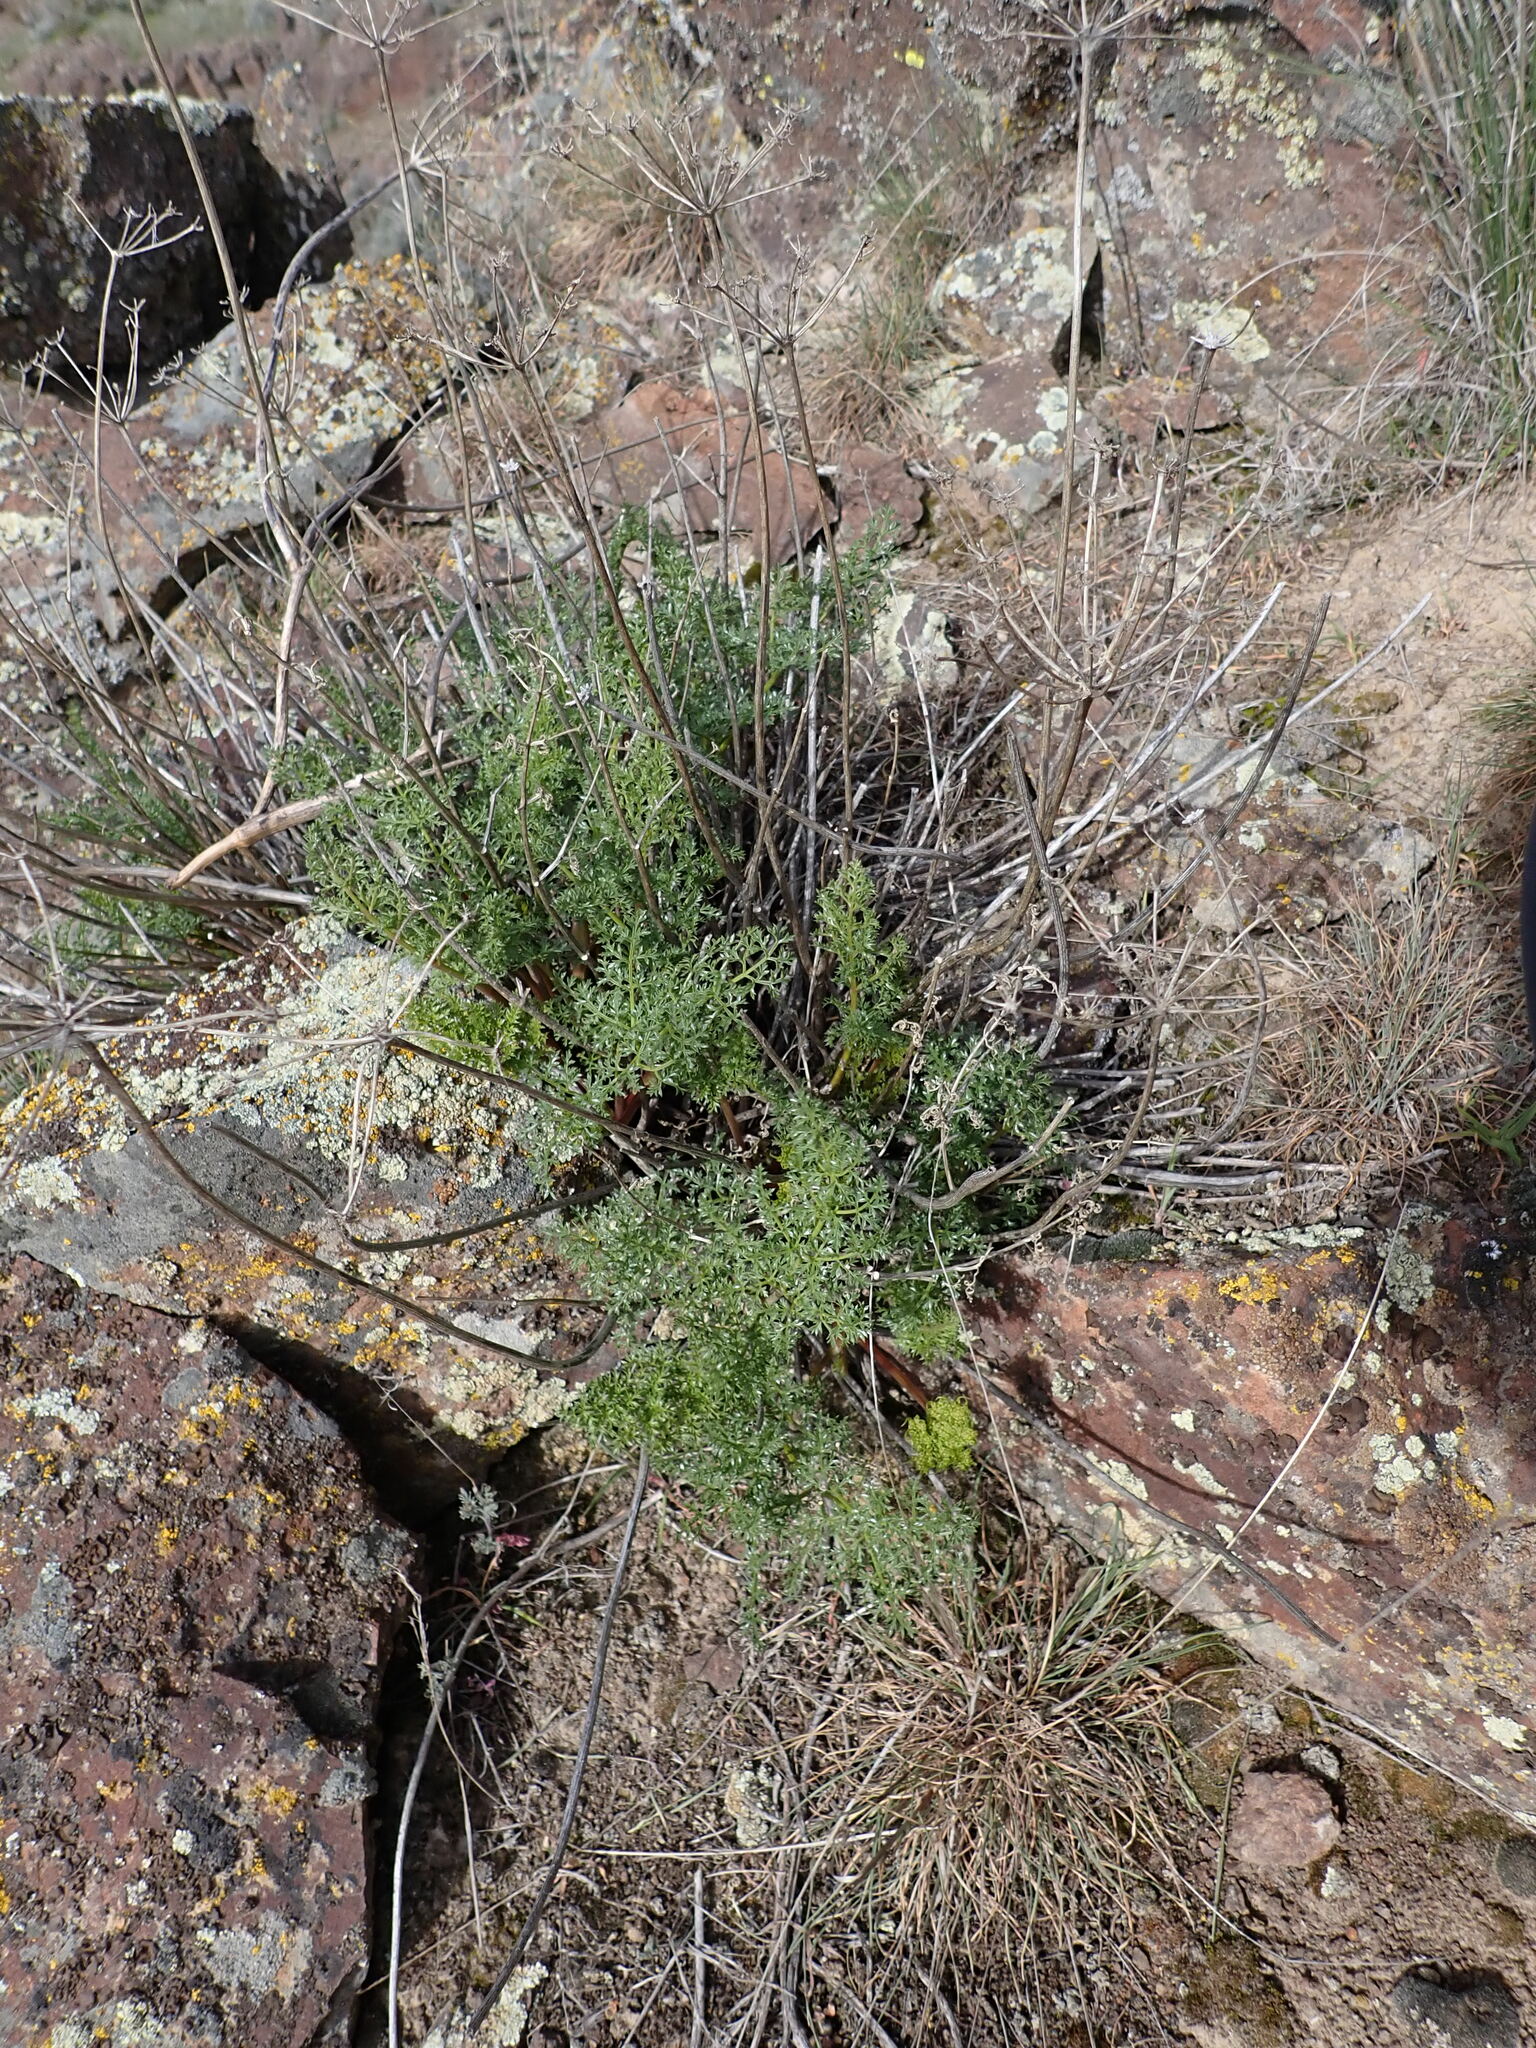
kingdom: Plantae
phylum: Tracheophyta
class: Magnoliopsida
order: Apiales
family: Apiaceae
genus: Pteryxia
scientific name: Pteryxia terebinthina
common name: Turpentine wavewing
